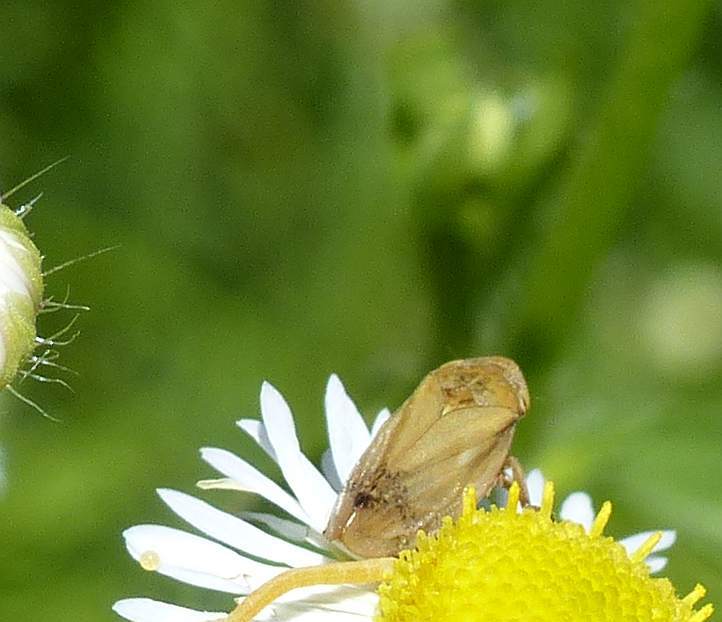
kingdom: Animalia
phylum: Arthropoda
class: Insecta
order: Hemiptera
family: Aphrophoridae
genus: Philaenus
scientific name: Philaenus spumarius
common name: Meadow spittlebug
